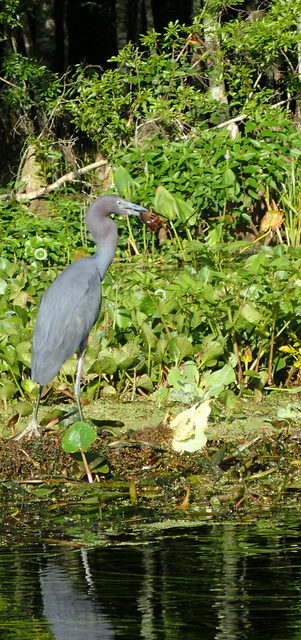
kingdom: Animalia
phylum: Chordata
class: Aves
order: Pelecaniformes
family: Ardeidae
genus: Egretta
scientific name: Egretta caerulea
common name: Little blue heron
